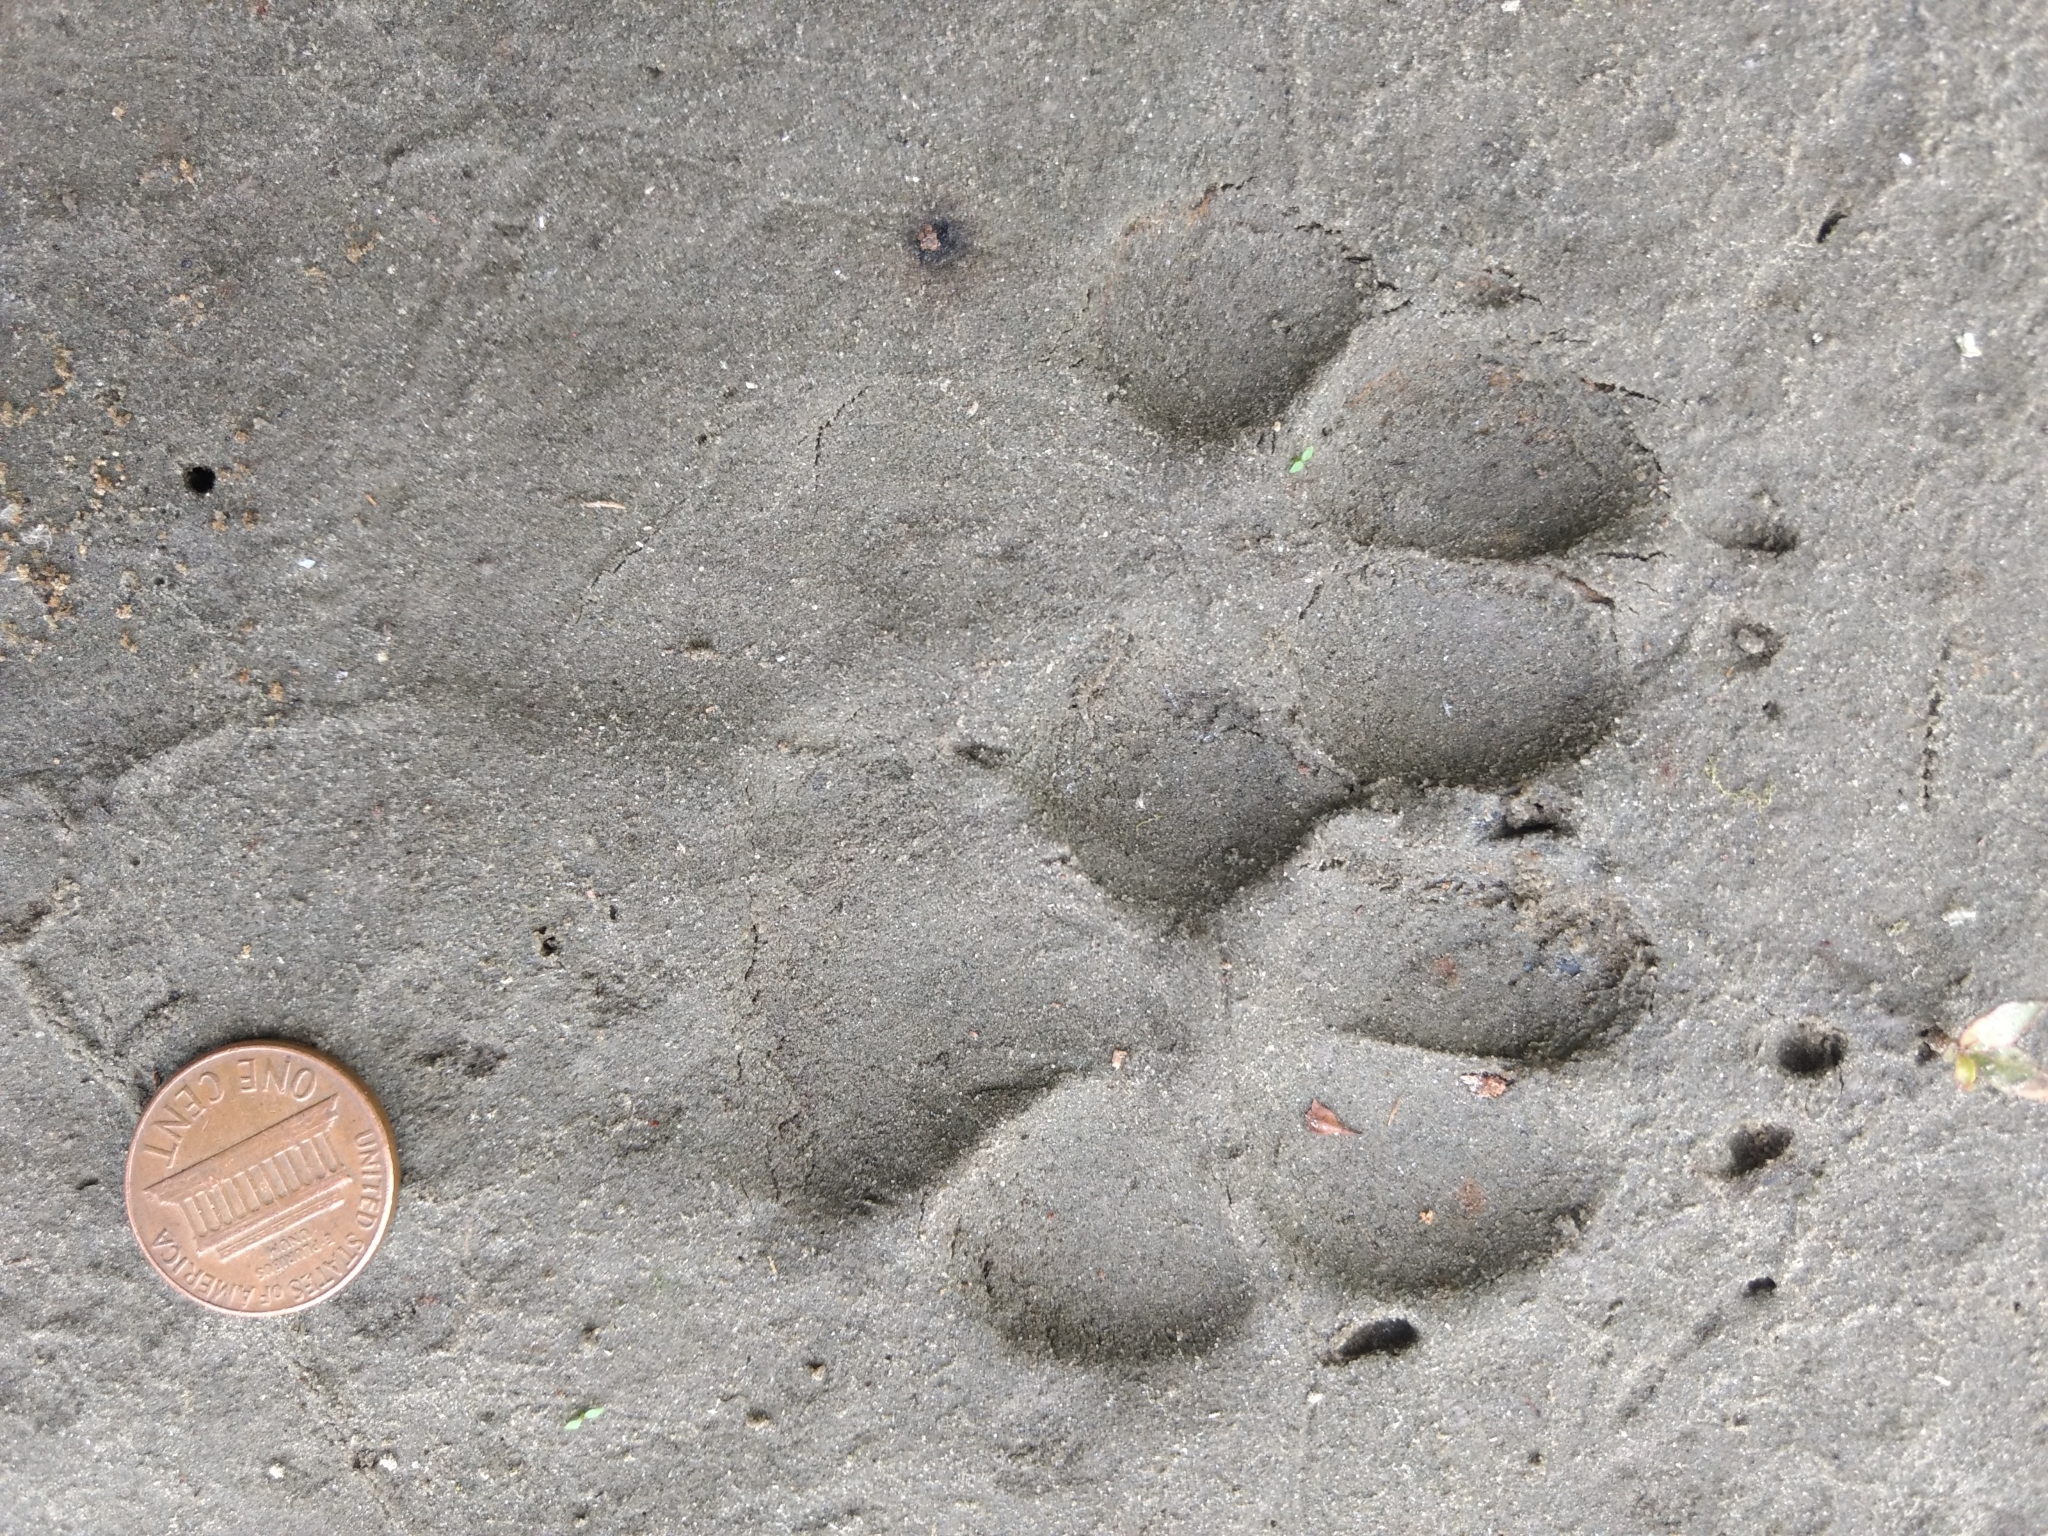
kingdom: Animalia
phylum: Chordata
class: Mammalia
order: Carnivora
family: Canidae
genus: Canis
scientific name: Canis latrans
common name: Coyote
